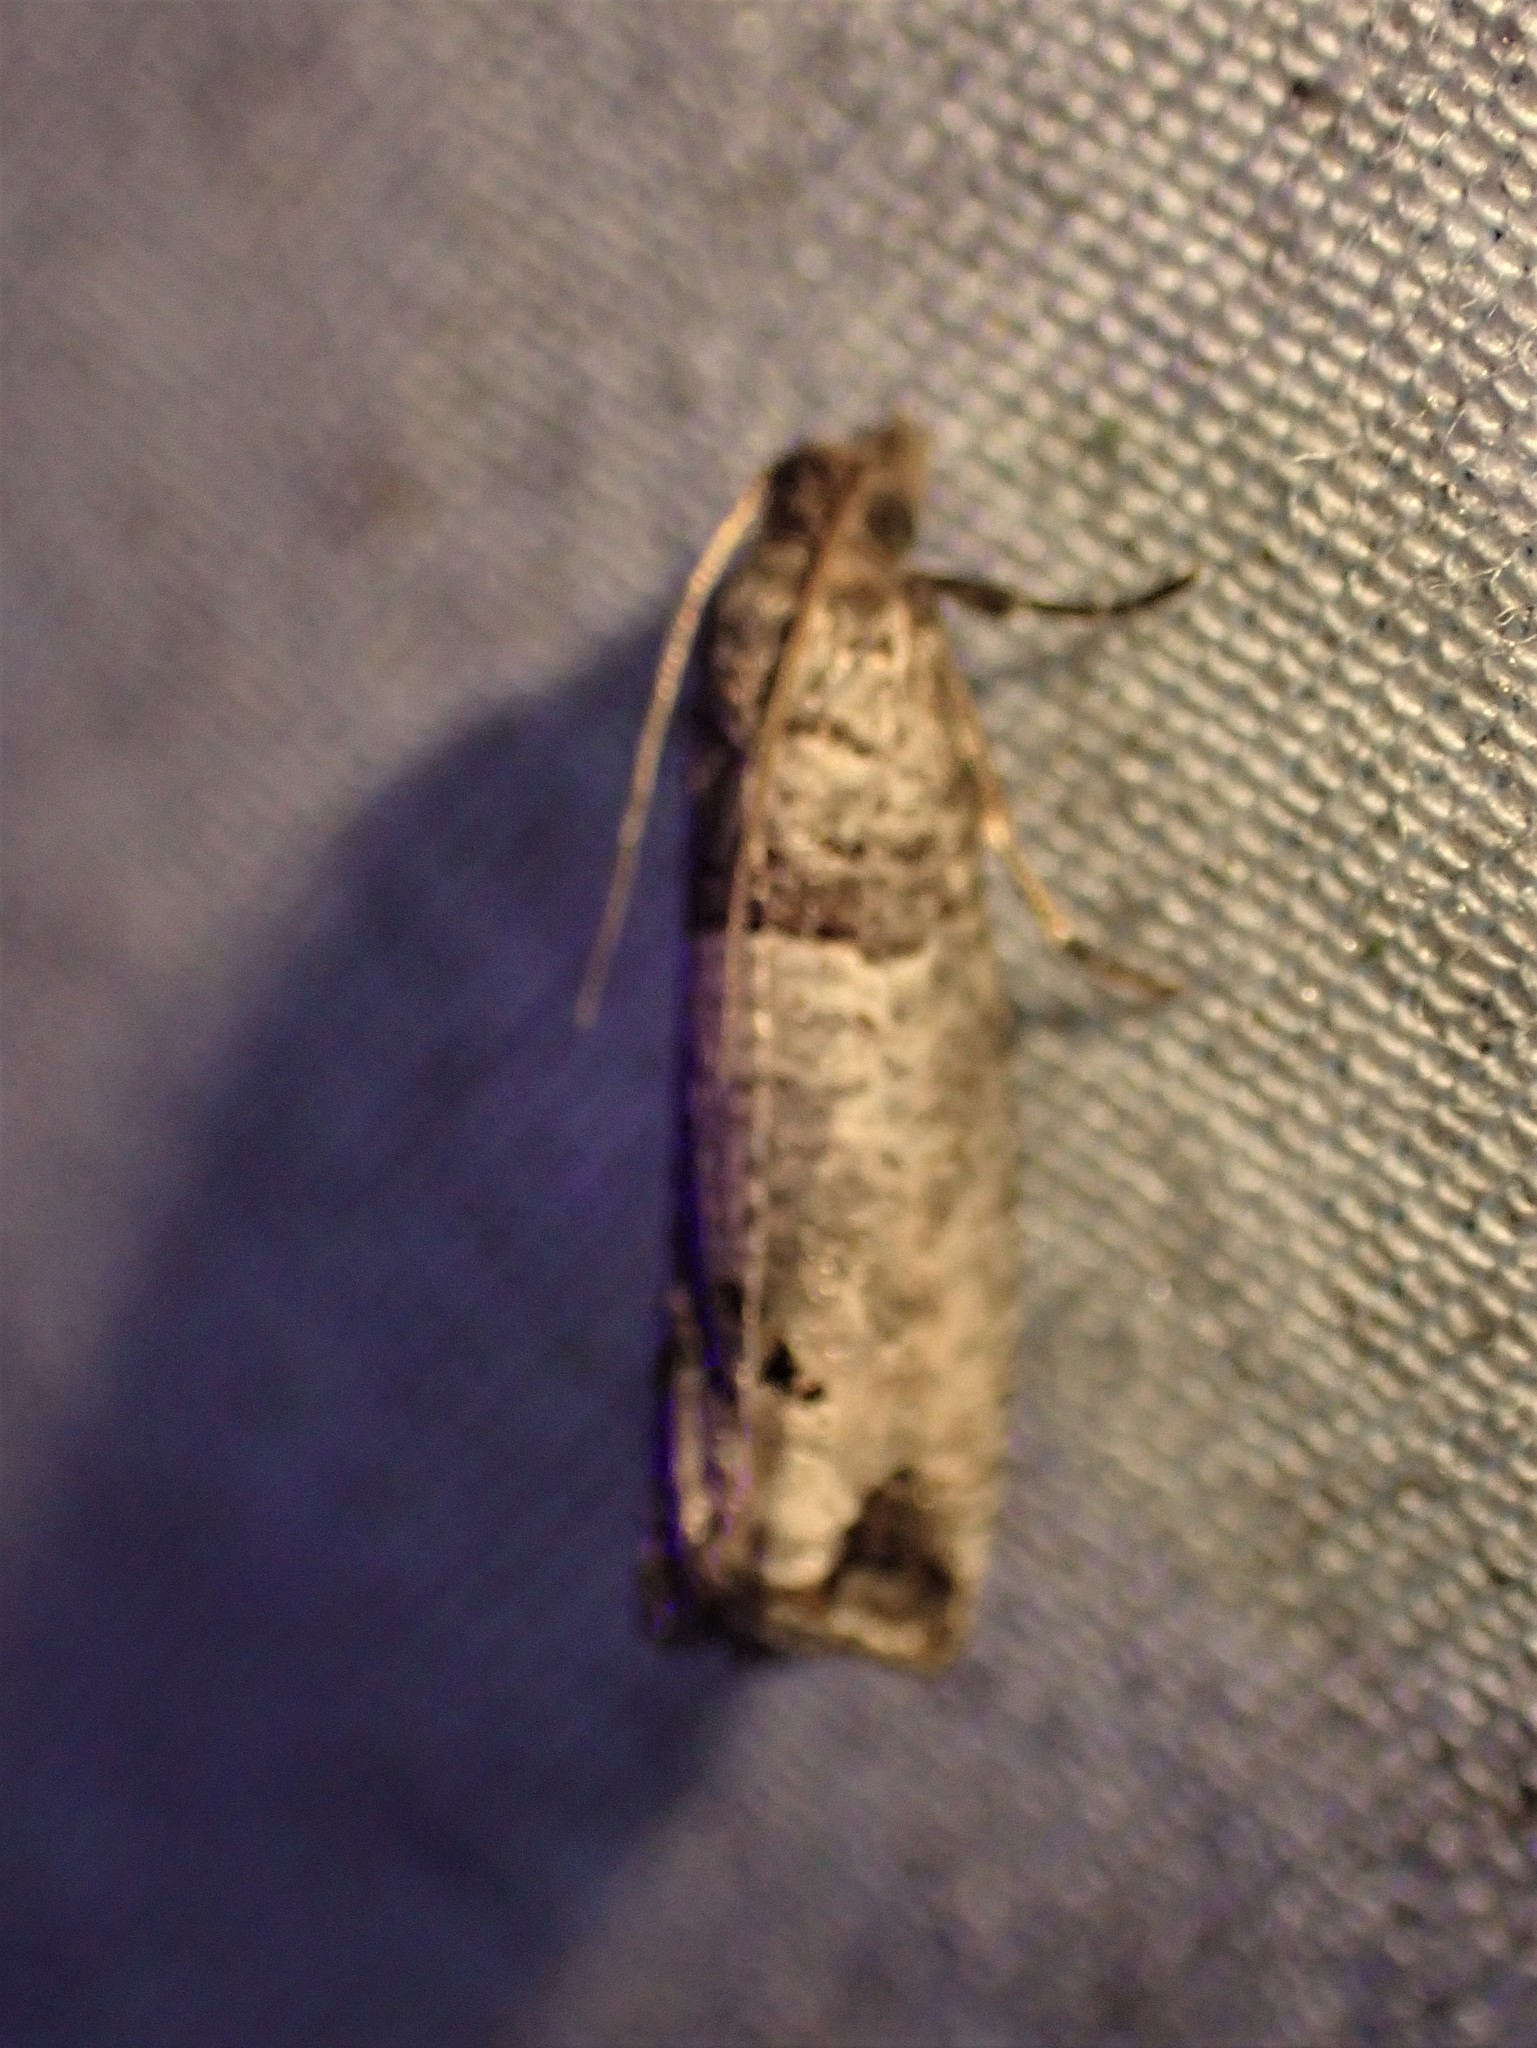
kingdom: Animalia
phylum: Arthropoda
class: Insecta
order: Lepidoptera
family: Tortricidae
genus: Notocelia
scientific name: Notocelia culminana
